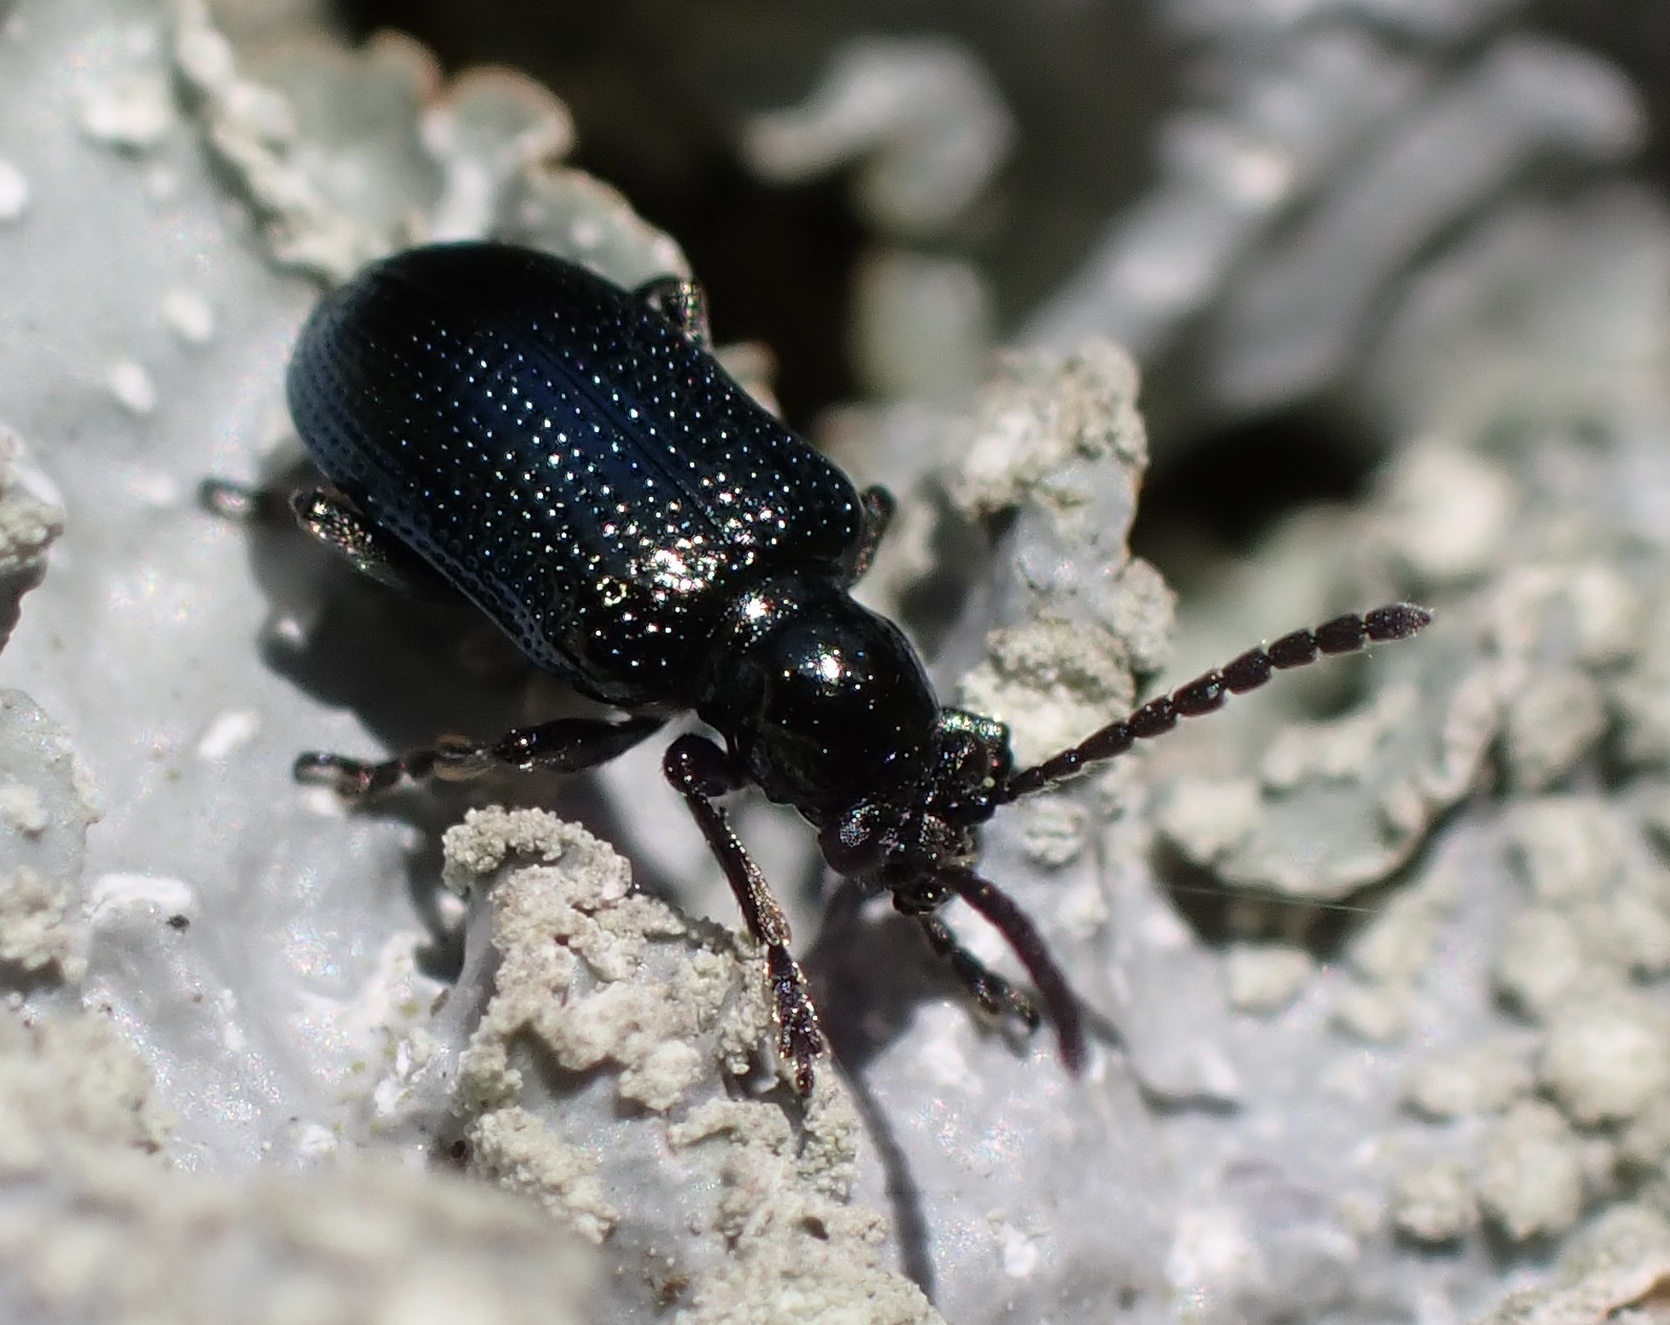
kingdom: Animalia
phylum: Arthropoda
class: Insecta
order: Coleoptera
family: Chrysomelidae
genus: Oulema
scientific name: Oulema gallaeciana
